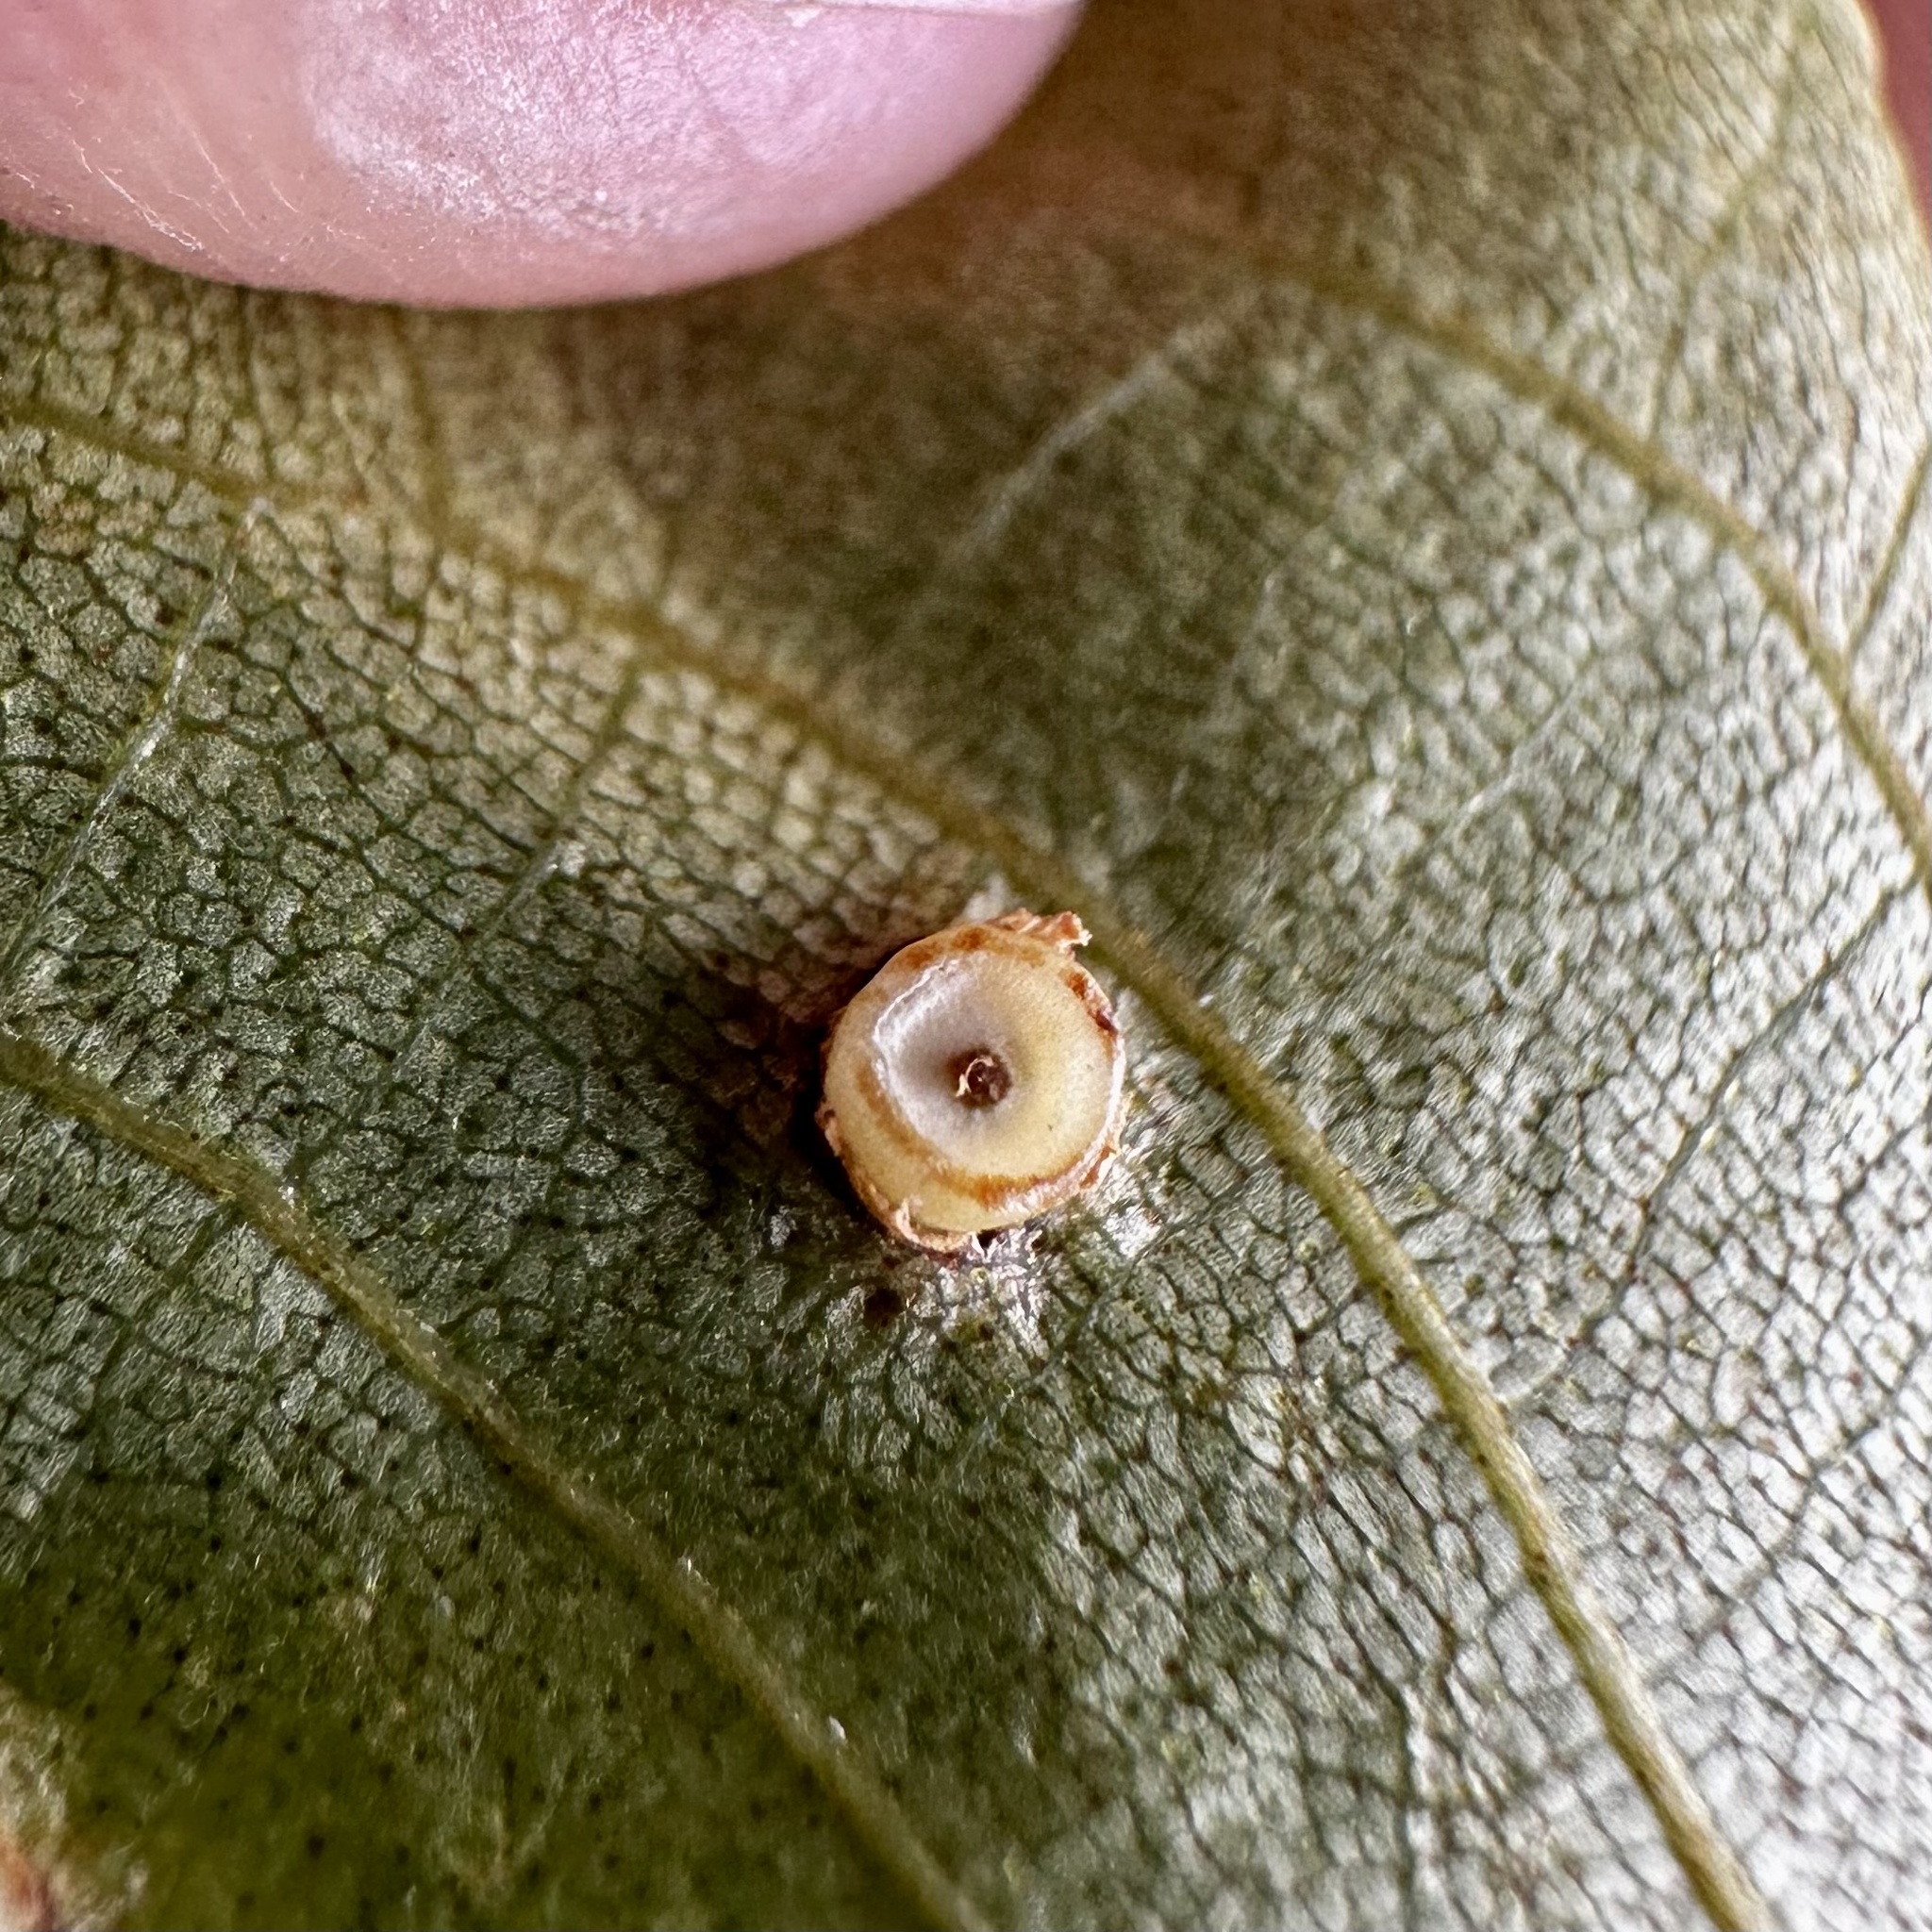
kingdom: Animalia
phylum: Arthropoda
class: Insecta
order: Diptera
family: Cecidomyiidae
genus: Caryomyia
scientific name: Caryomyia levicrustum
